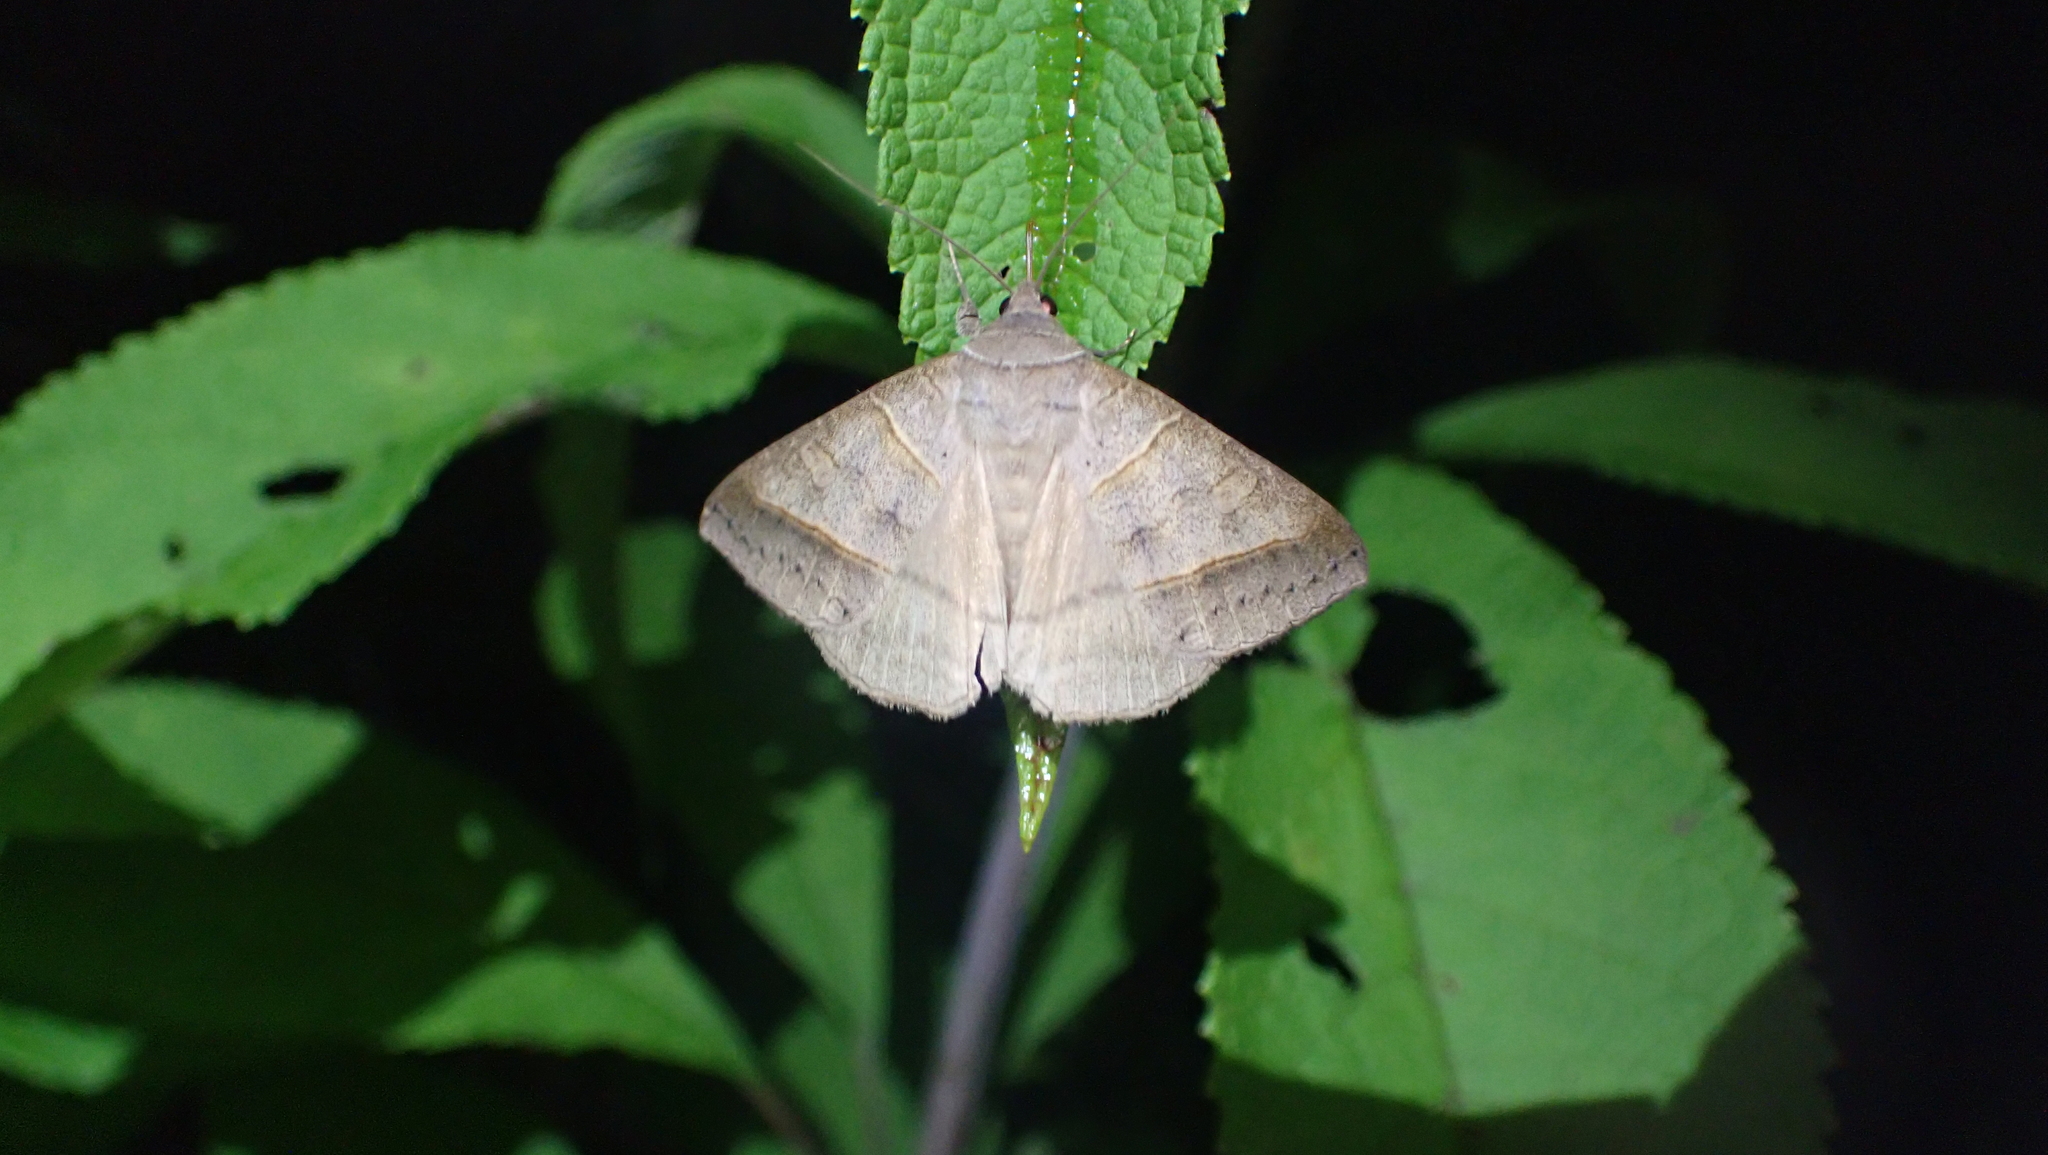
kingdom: Animalia
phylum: Arthropoda
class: Insecta
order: Lepidoptera
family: Erebidae
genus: Mocis
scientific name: Mocis texana
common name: Texas mocis moth
